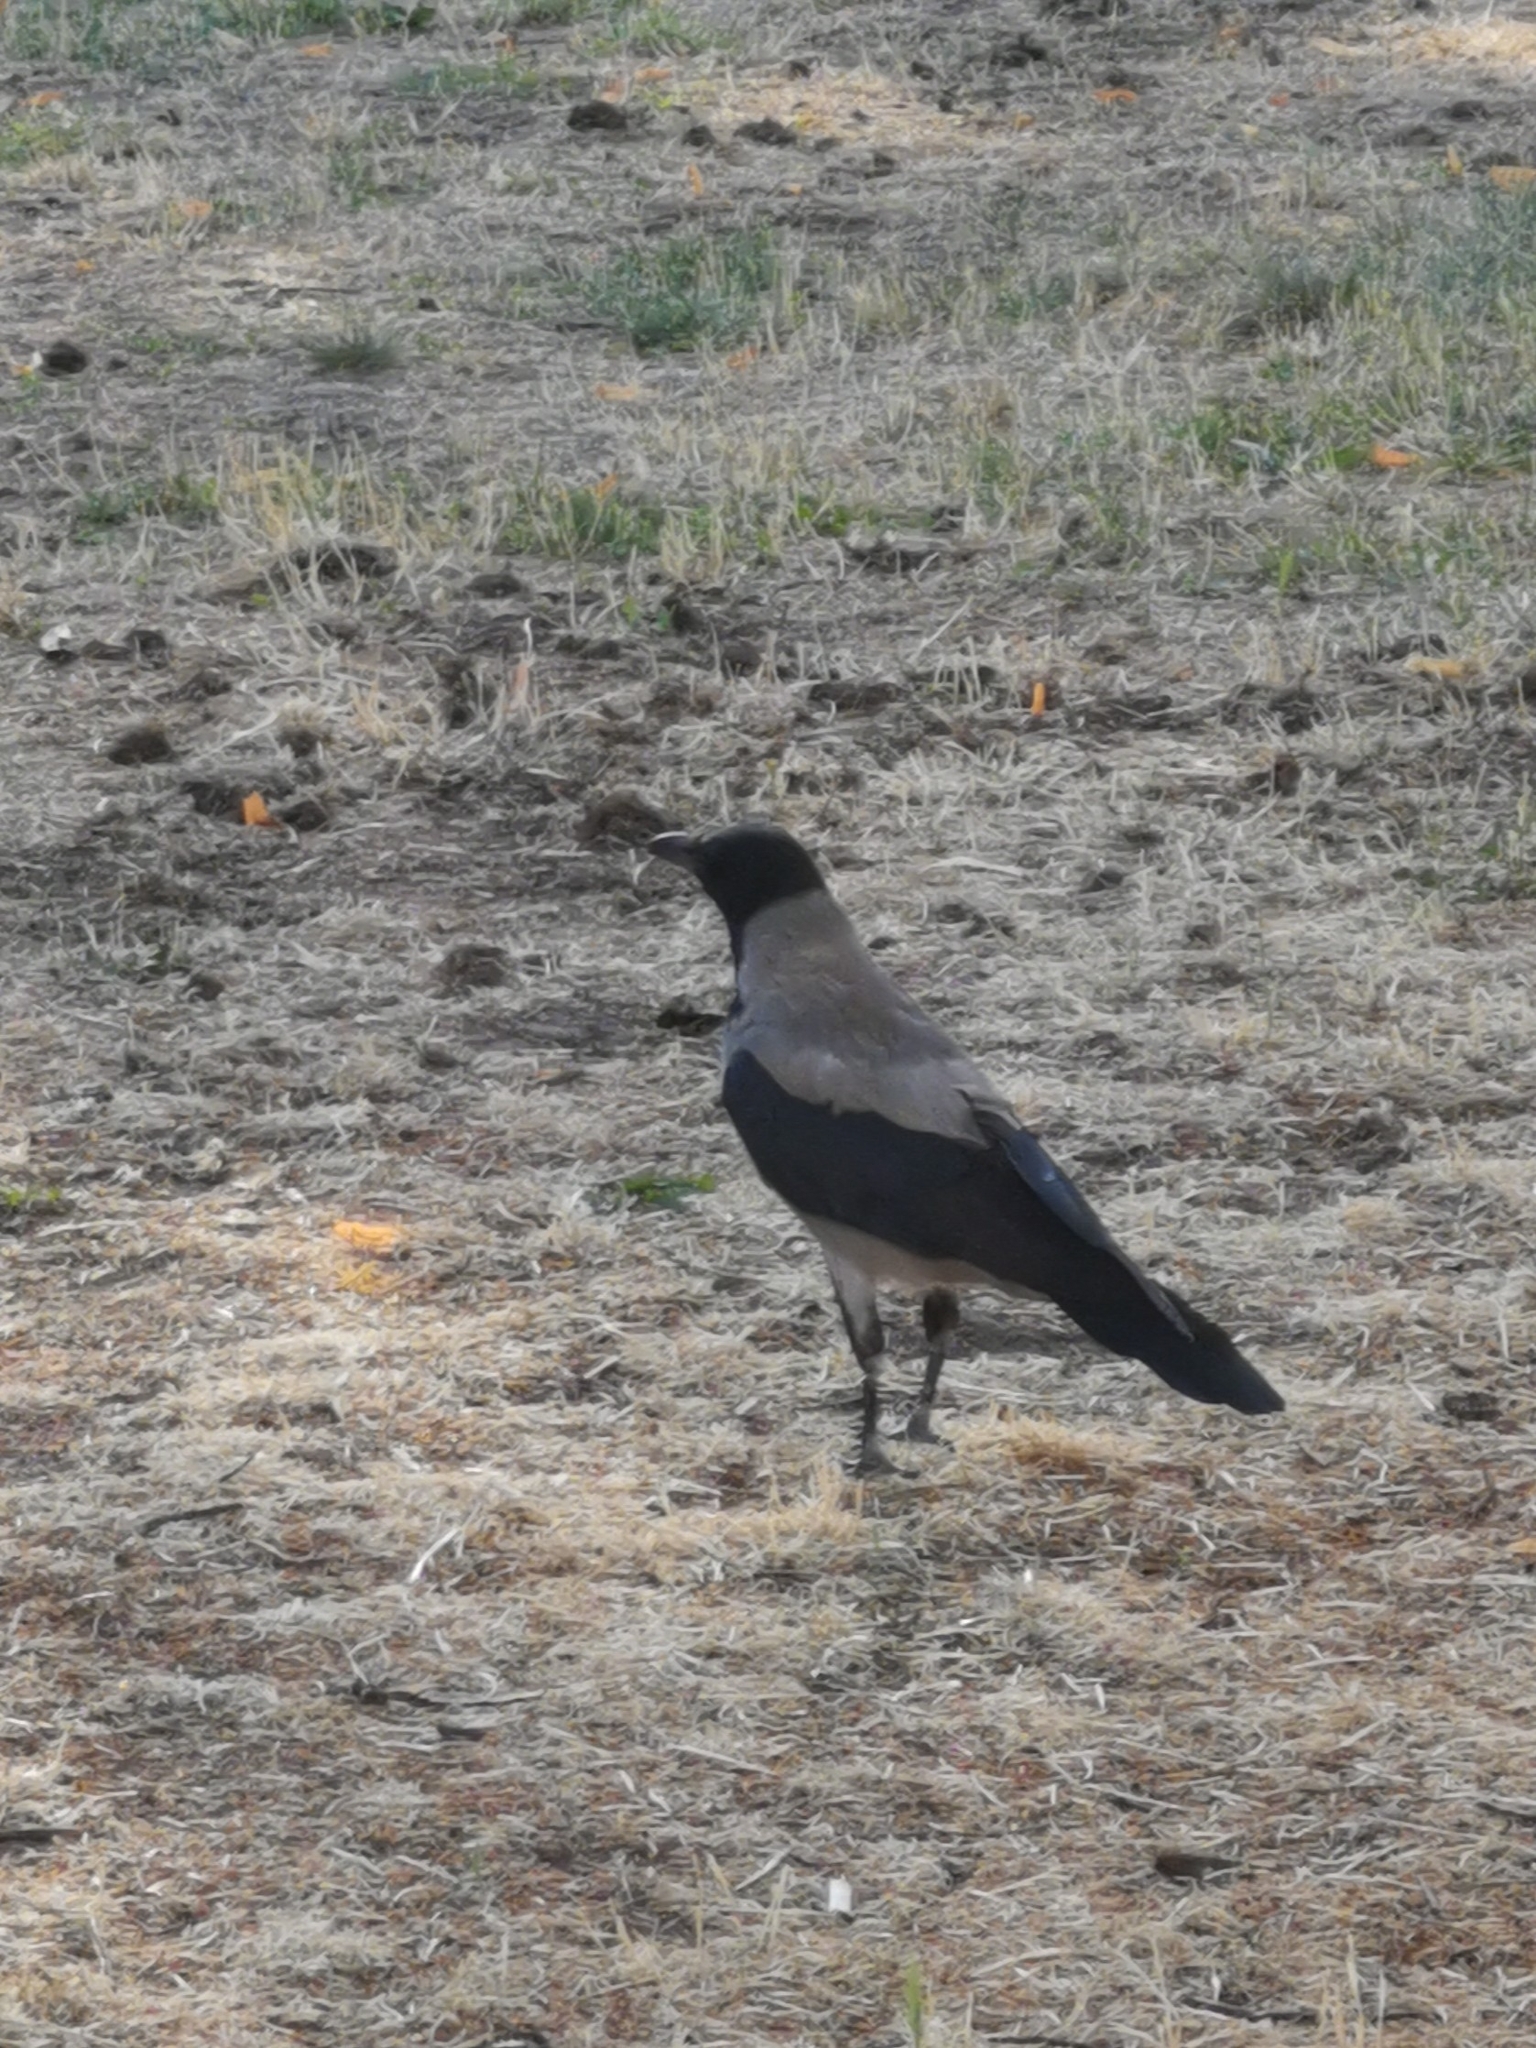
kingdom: Animalia
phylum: Chordata
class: Aves
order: Passeriformes
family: Corvidae
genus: Corvus
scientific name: Corvus cornix
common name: Hooded crow
